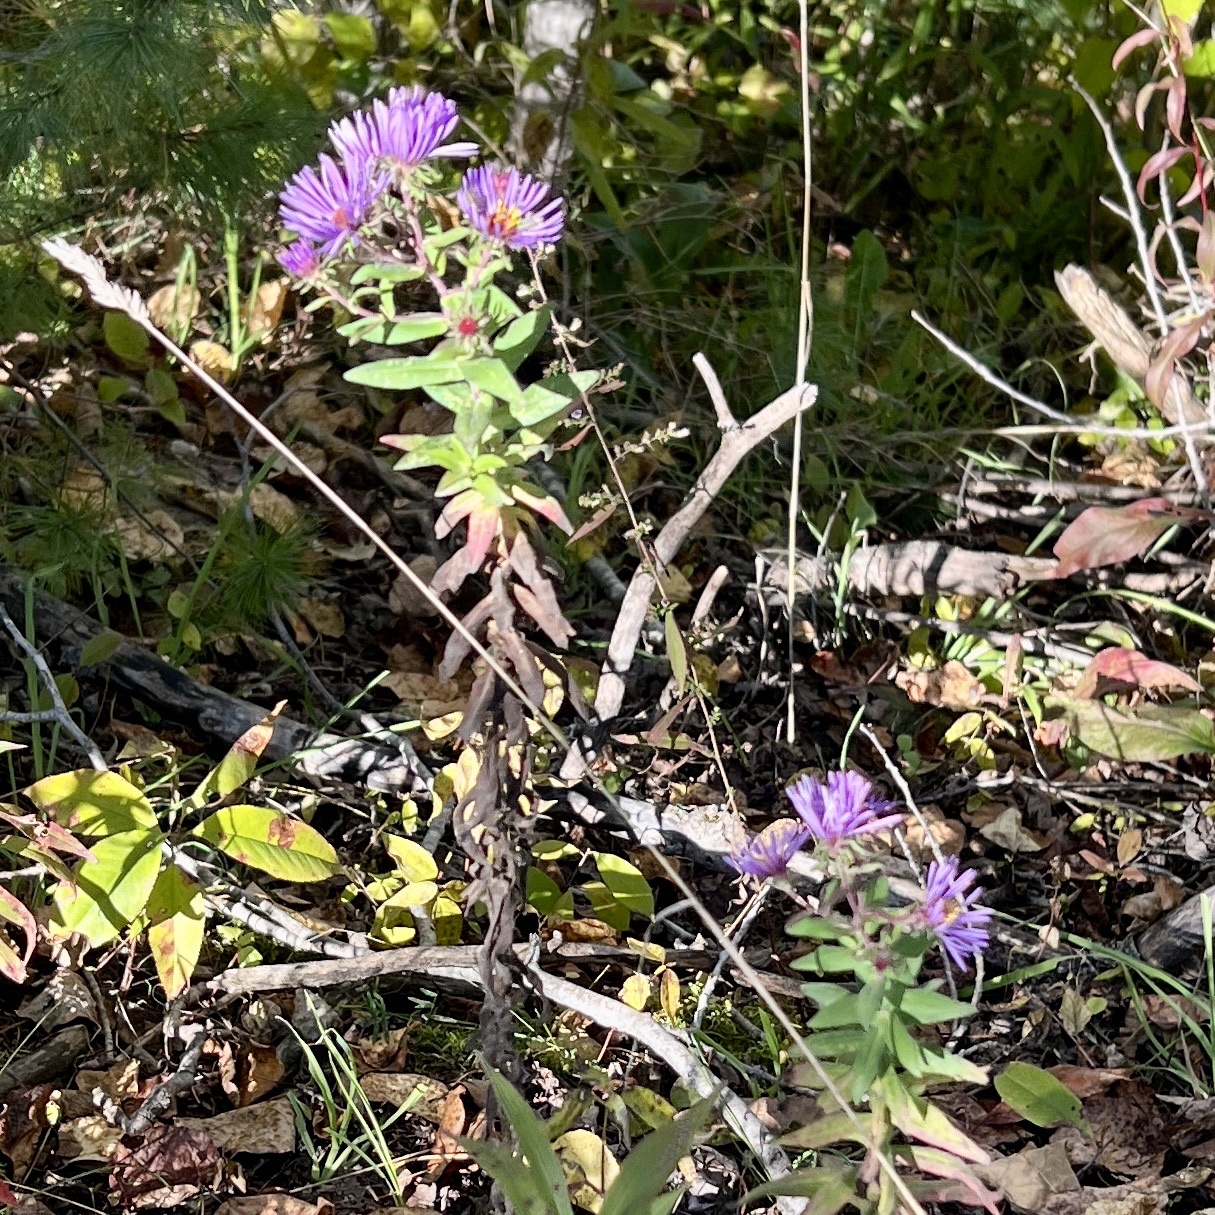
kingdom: Plantae
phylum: Tracheophyta
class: Magnoliopsida
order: Asterales
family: Asteraceae
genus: Symphyotrichum
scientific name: Symphyotrichum novae-angliae
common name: Michaelmas daisy
